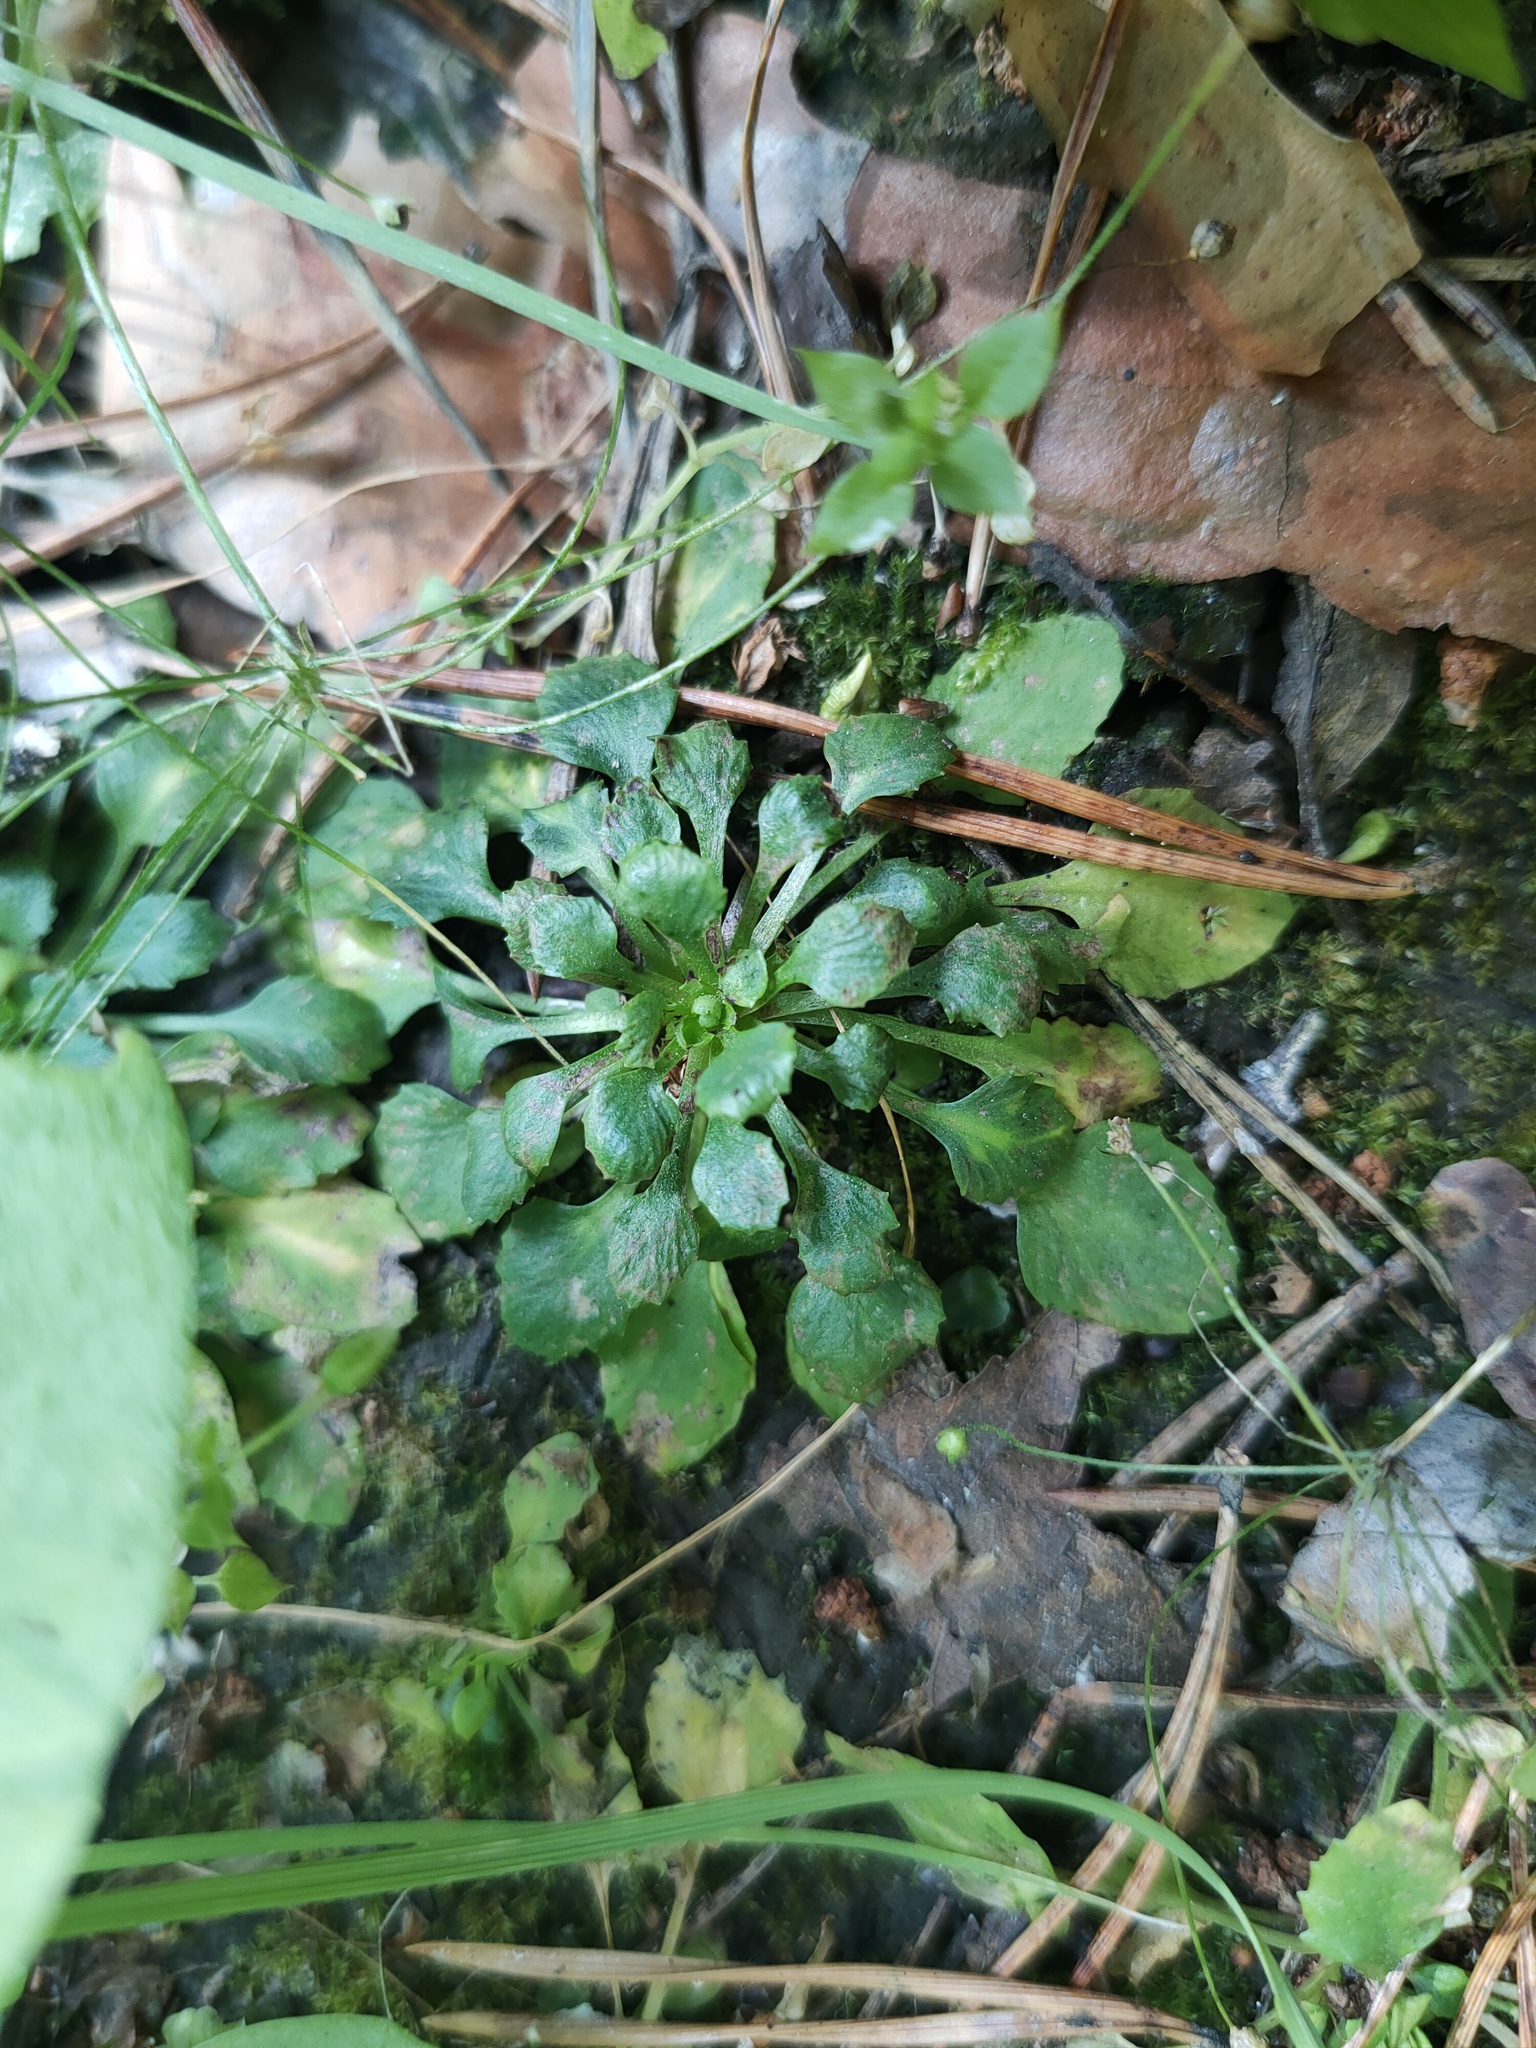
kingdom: Plantae
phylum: Tracheophyta
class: Magnoliopsida
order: Ericales
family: Primulaceae
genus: Androsace
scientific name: Androsace filiformis
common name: Filiform rock jasmine
